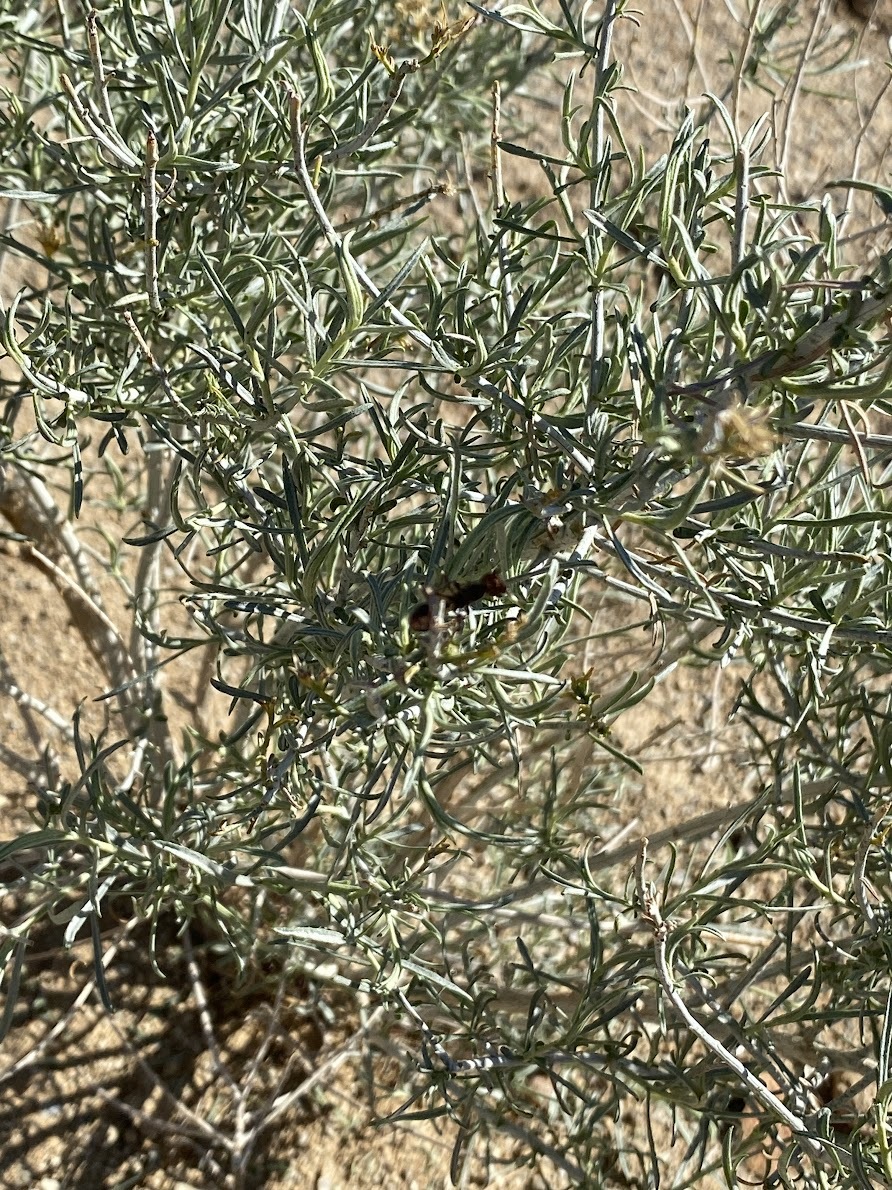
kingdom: Animalia
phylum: Arthropoda
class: Insecta
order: Hymenoptera
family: Formicidae
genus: Pogonomyrmex
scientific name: Pogonomyrmex rugosus
